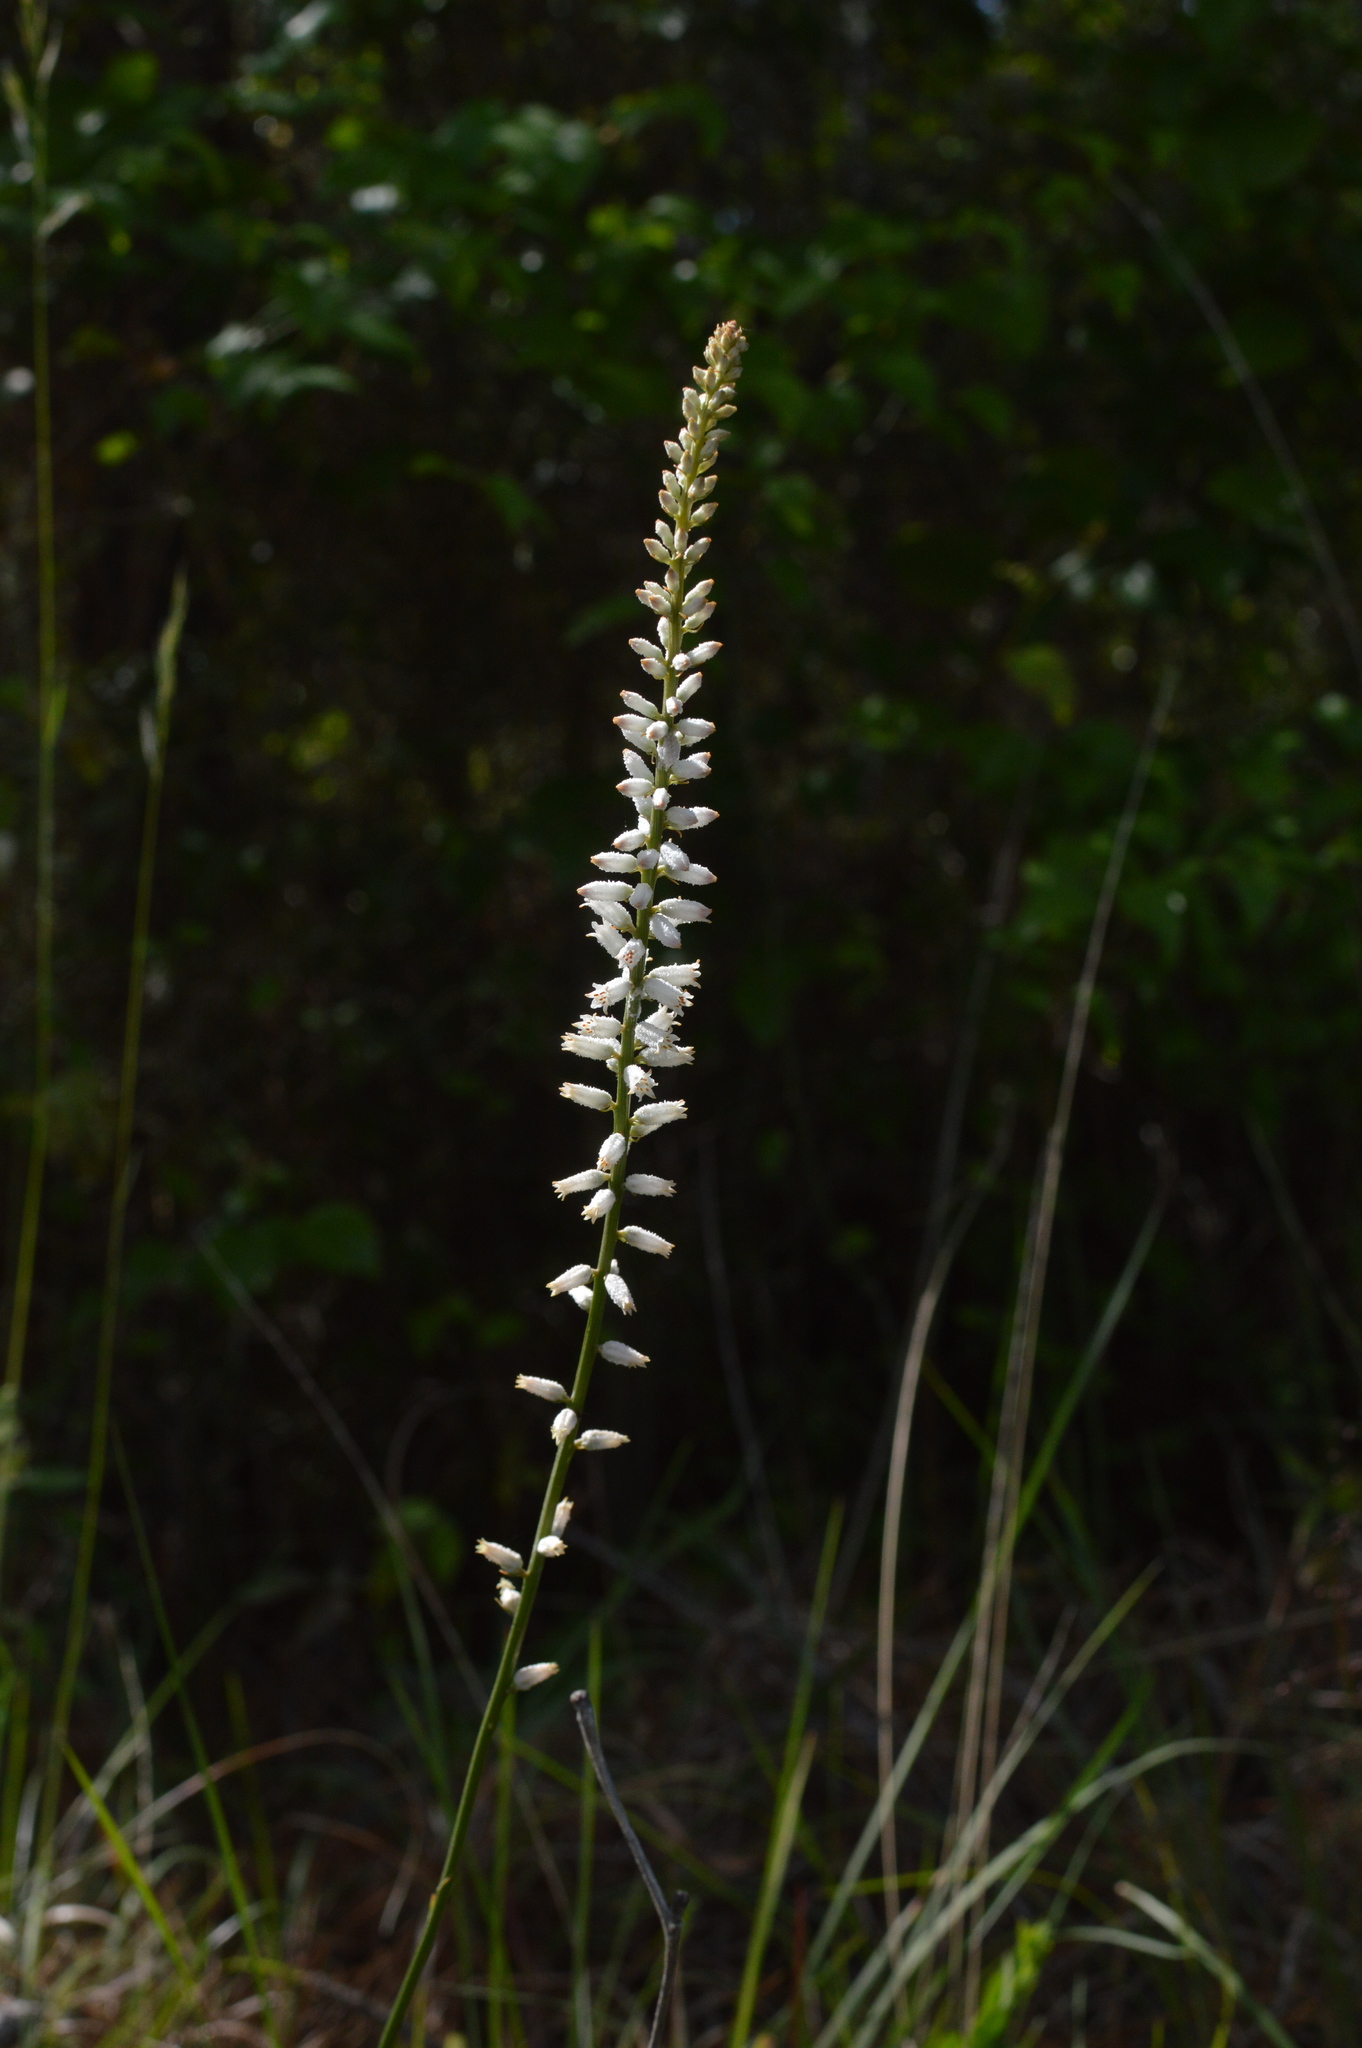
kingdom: Plantae
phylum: Tracheophyta
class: Liliopsida
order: Dioscoreales
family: Nartheciaceae
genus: Aletris
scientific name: Aletris farinosa
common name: Colicroot
